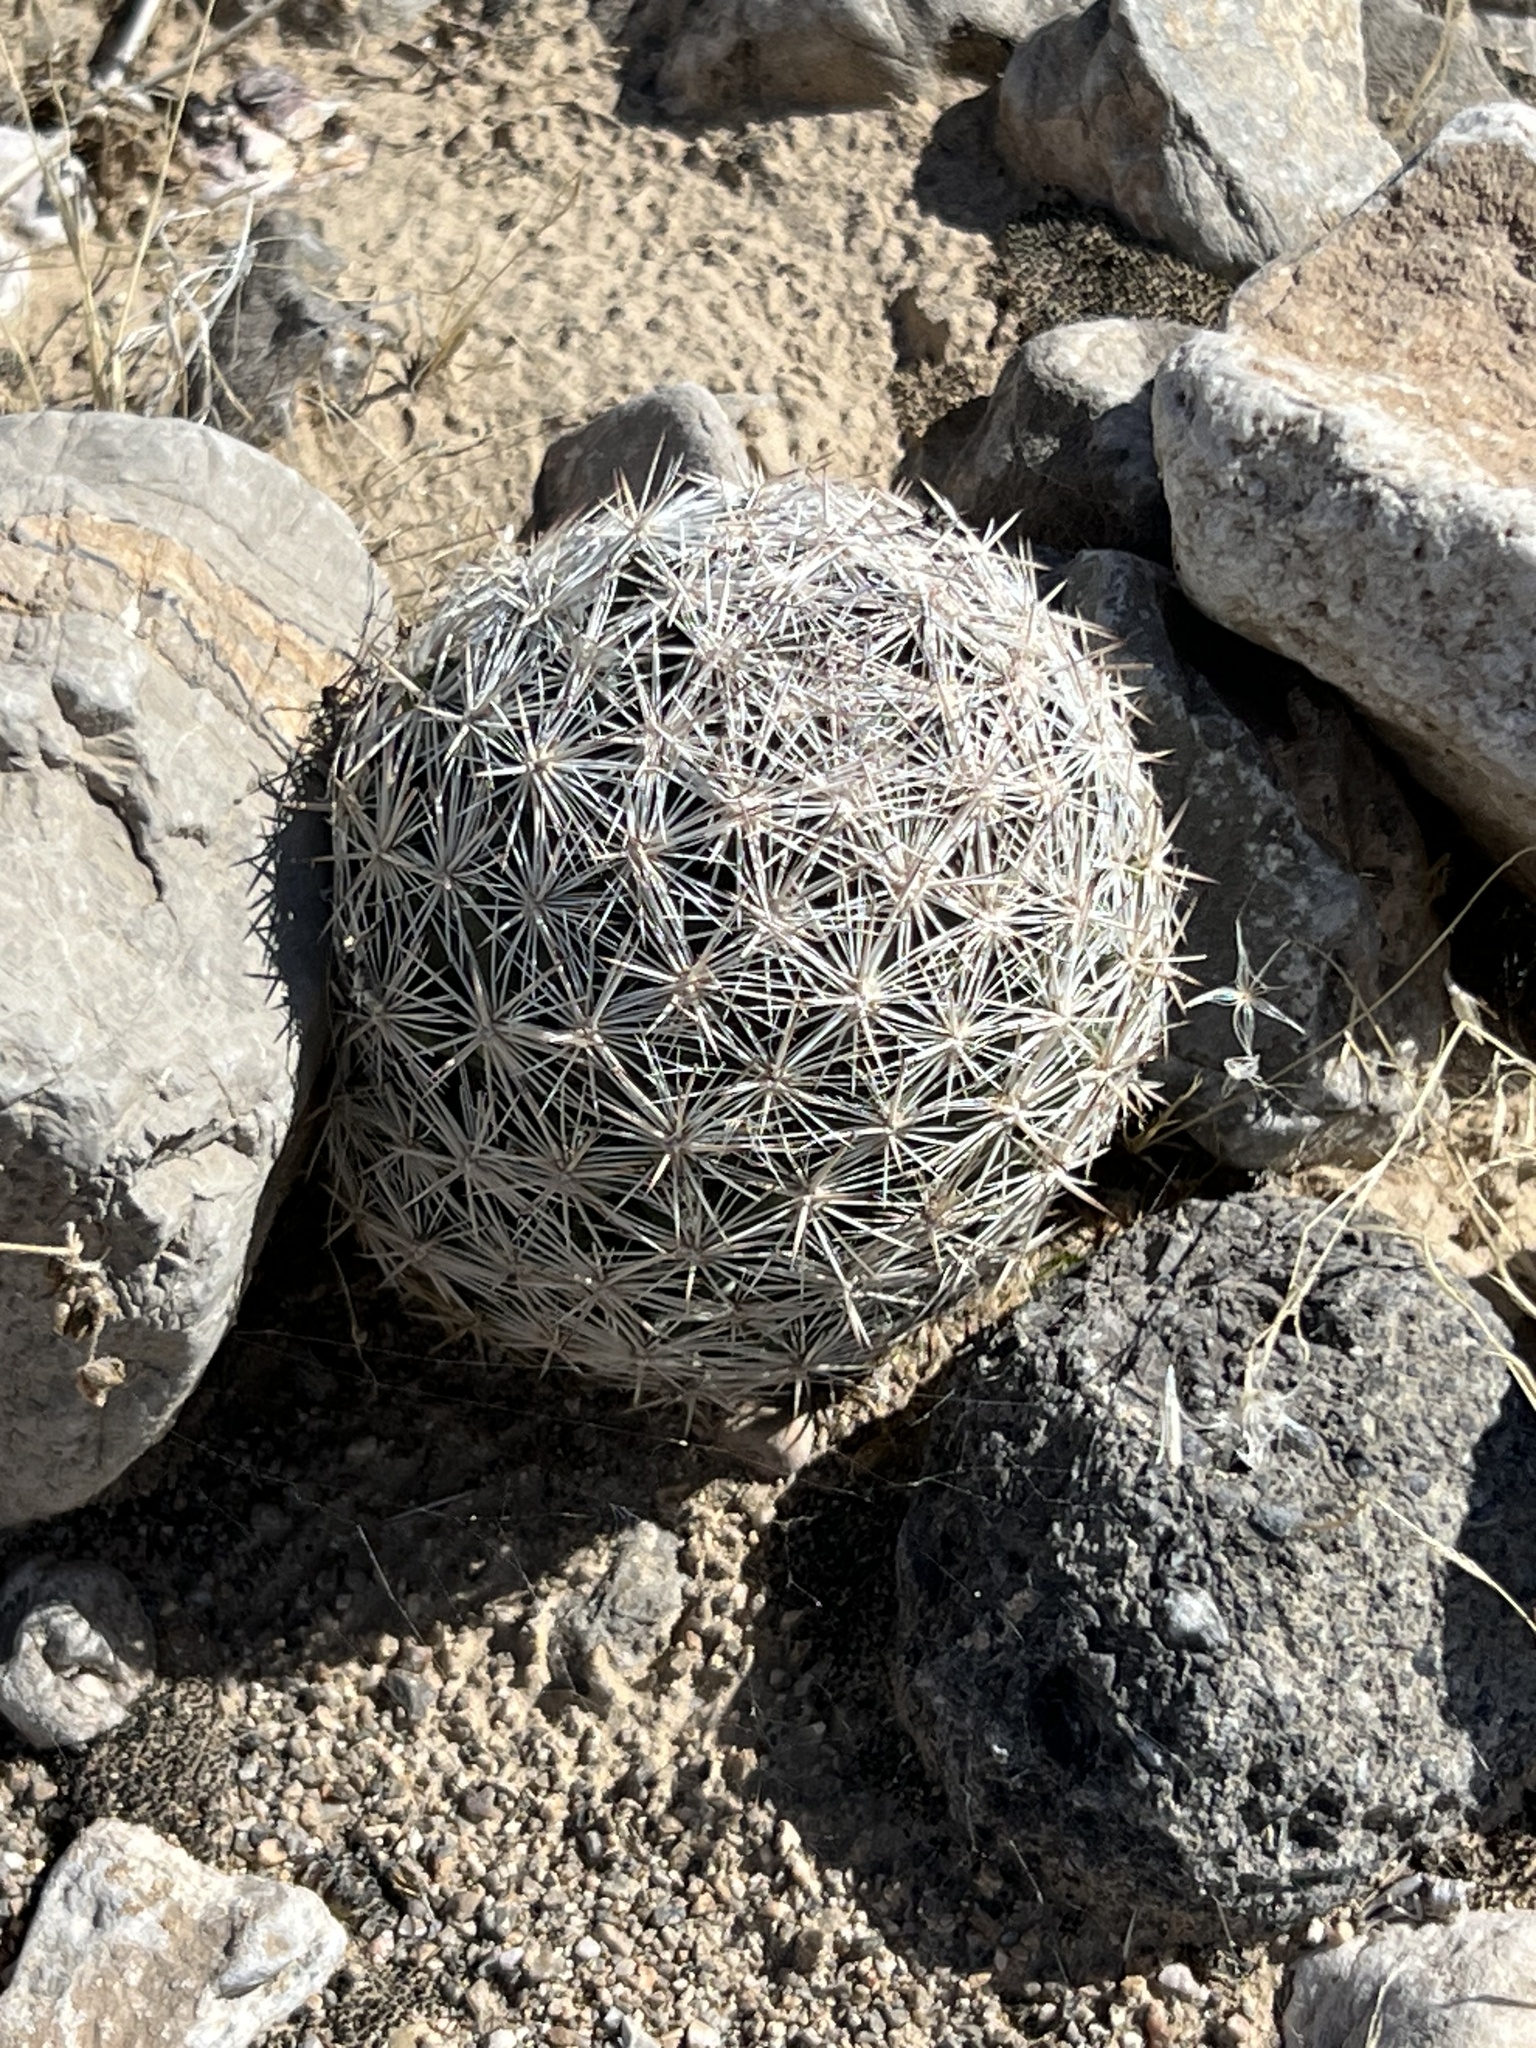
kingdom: Plantae
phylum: Tracheophyta
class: Magnoliopsida
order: Caryophyllales
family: Cactaceae
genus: Pelecyphora
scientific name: Pelecyphora dasyacantha
